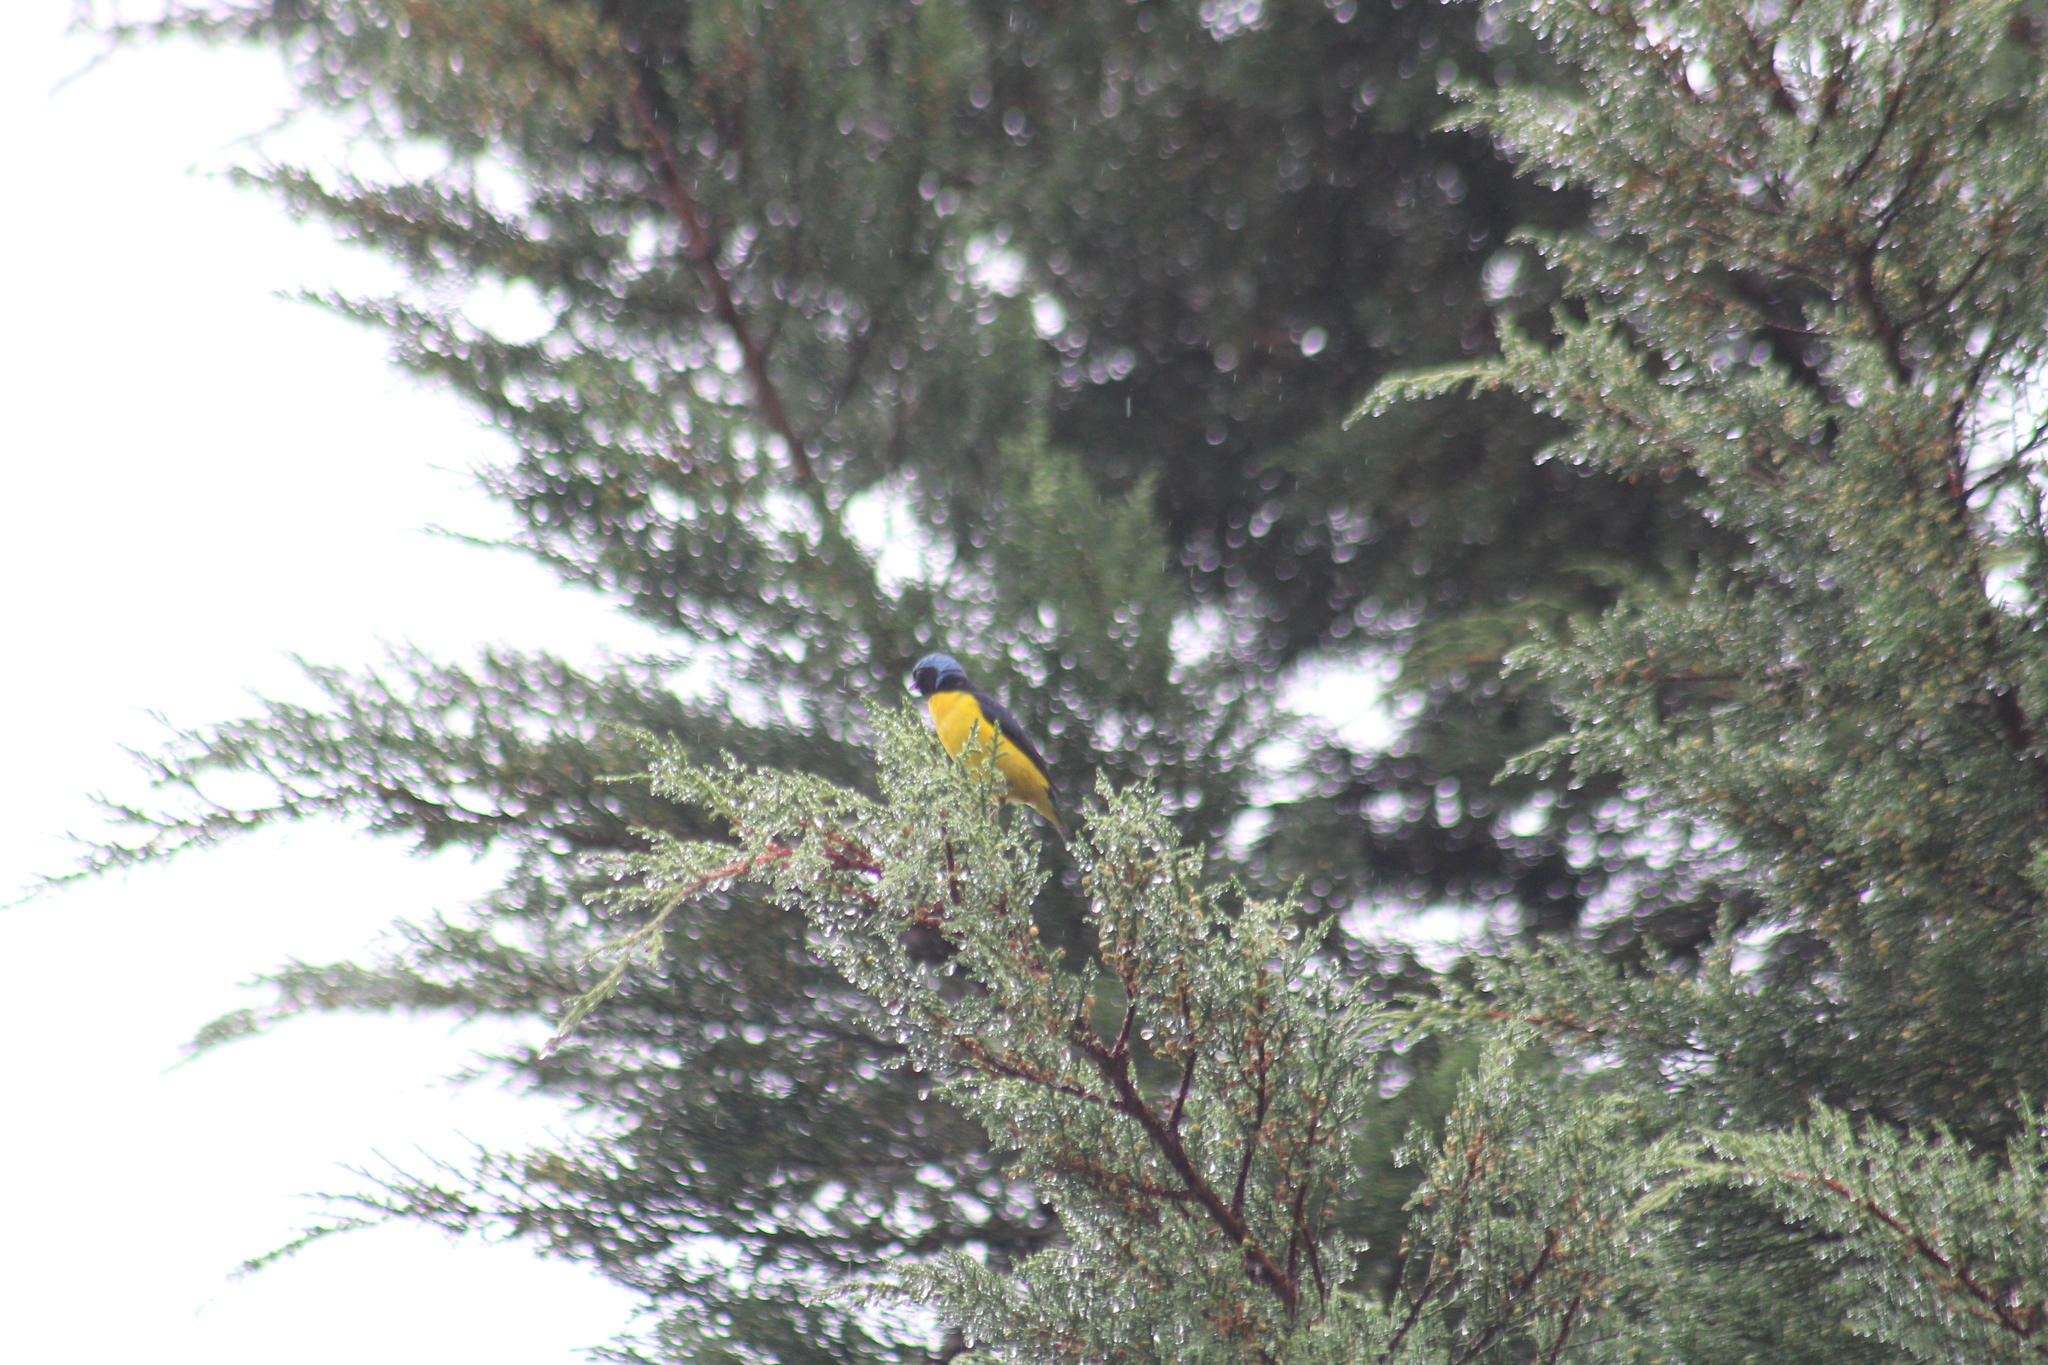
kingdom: Animalia
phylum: Chordata
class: Aves
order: Passeriformes
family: Fringillidae
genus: Euphonia
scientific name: Euphonia cyanocephala
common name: Golden-rumped euphonia
